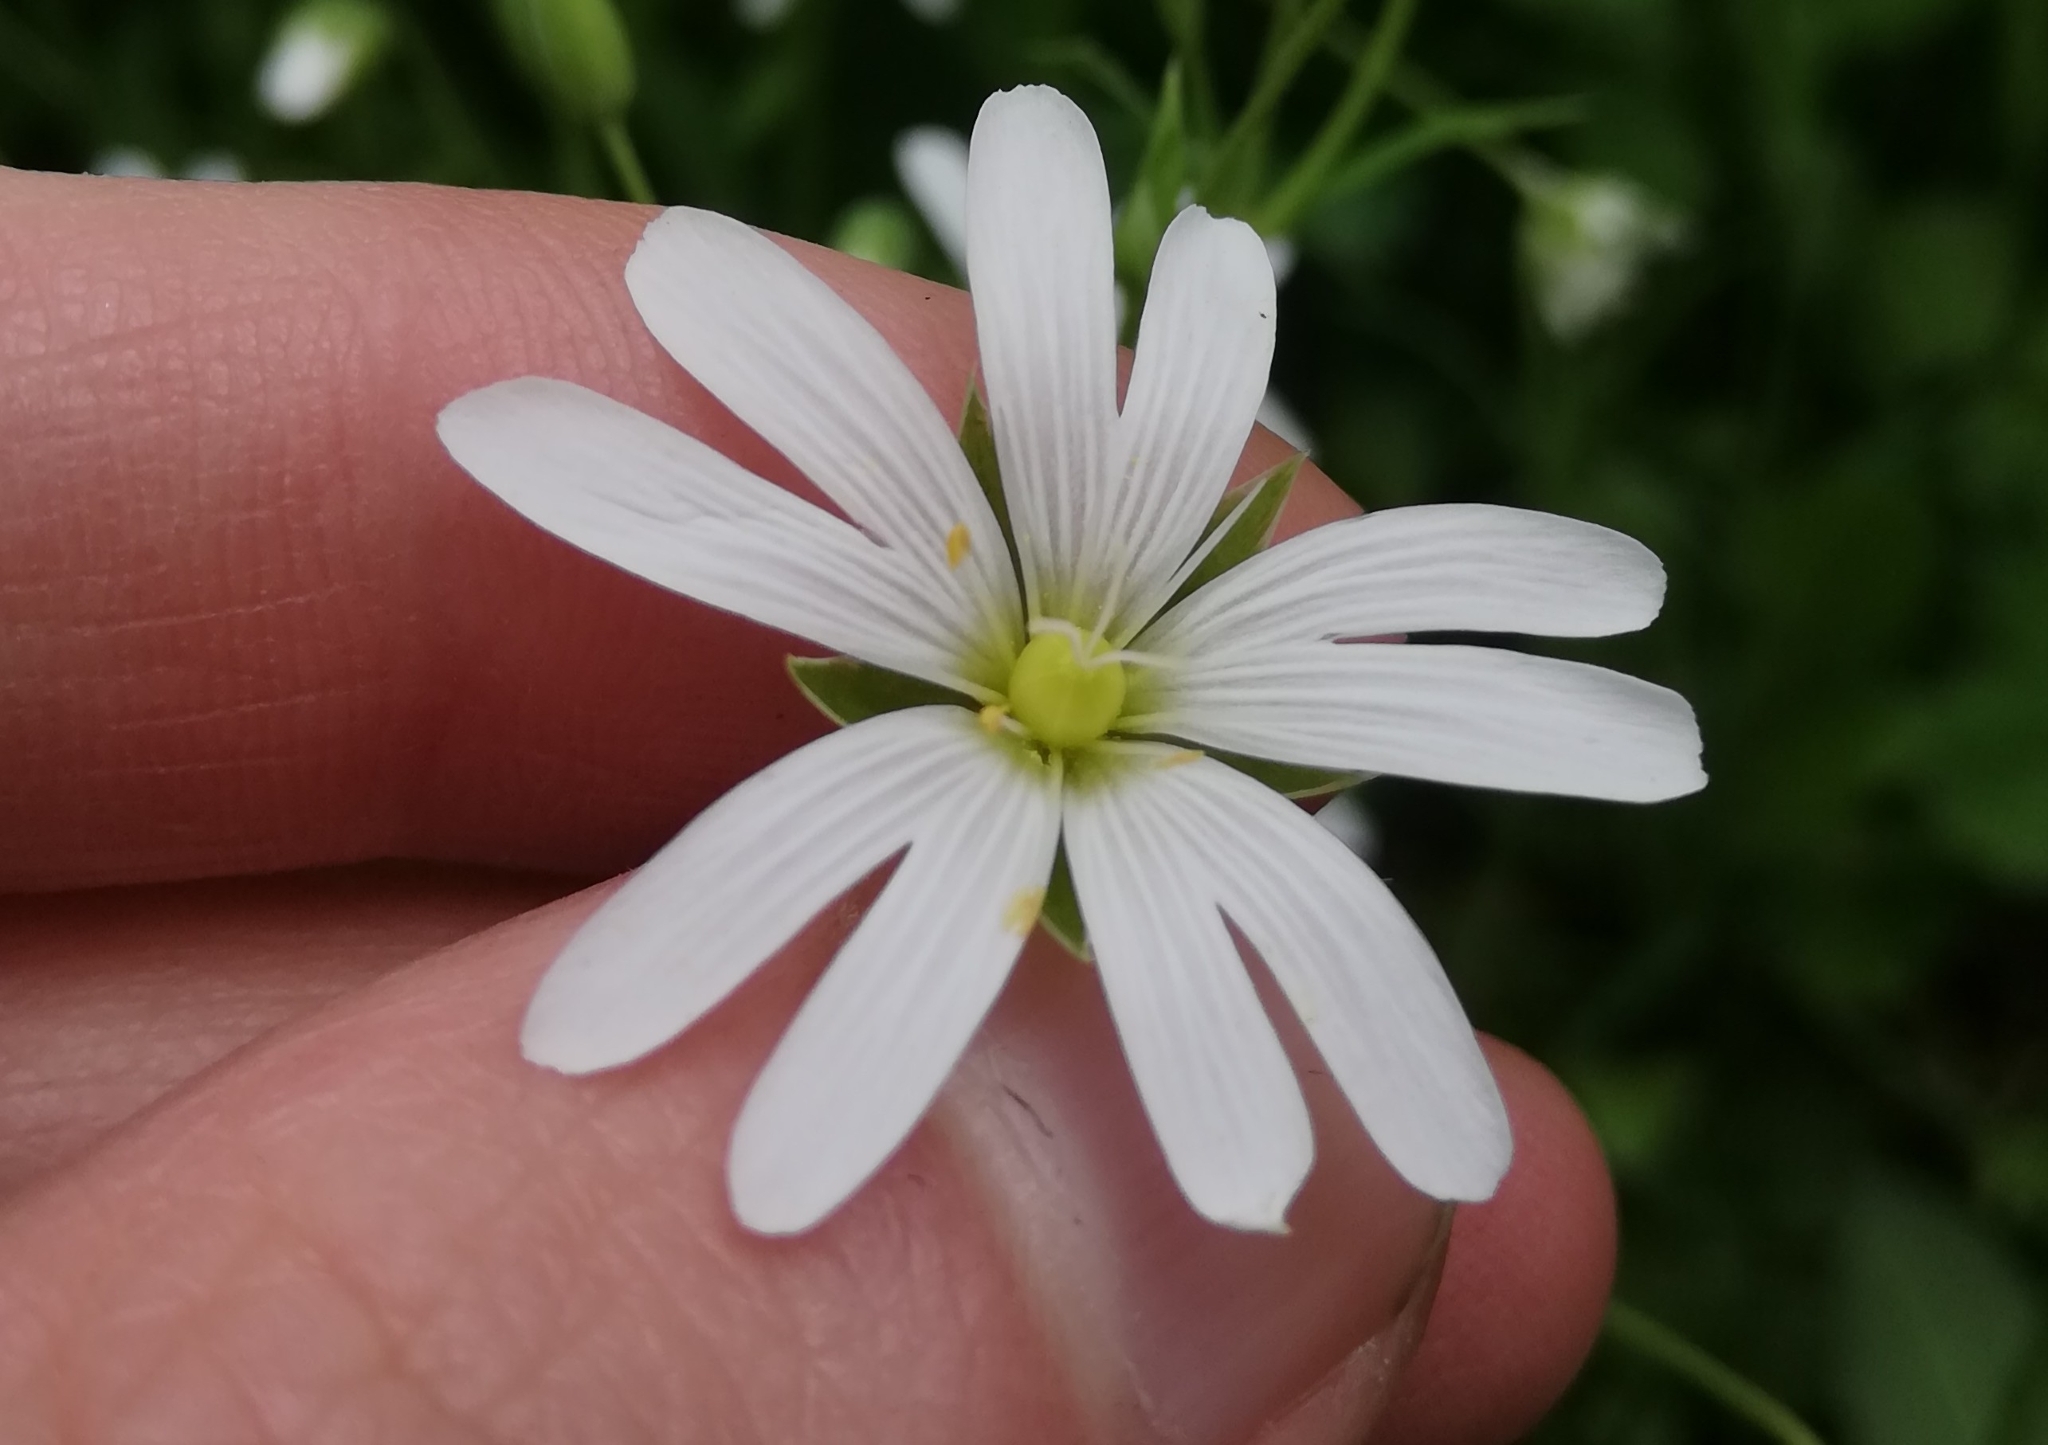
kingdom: Plantae
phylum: Tracheophyta
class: Magnoliopsida
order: Caryophyllales
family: Caryophyllaceae
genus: Rabelera
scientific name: Rabelera holostea
